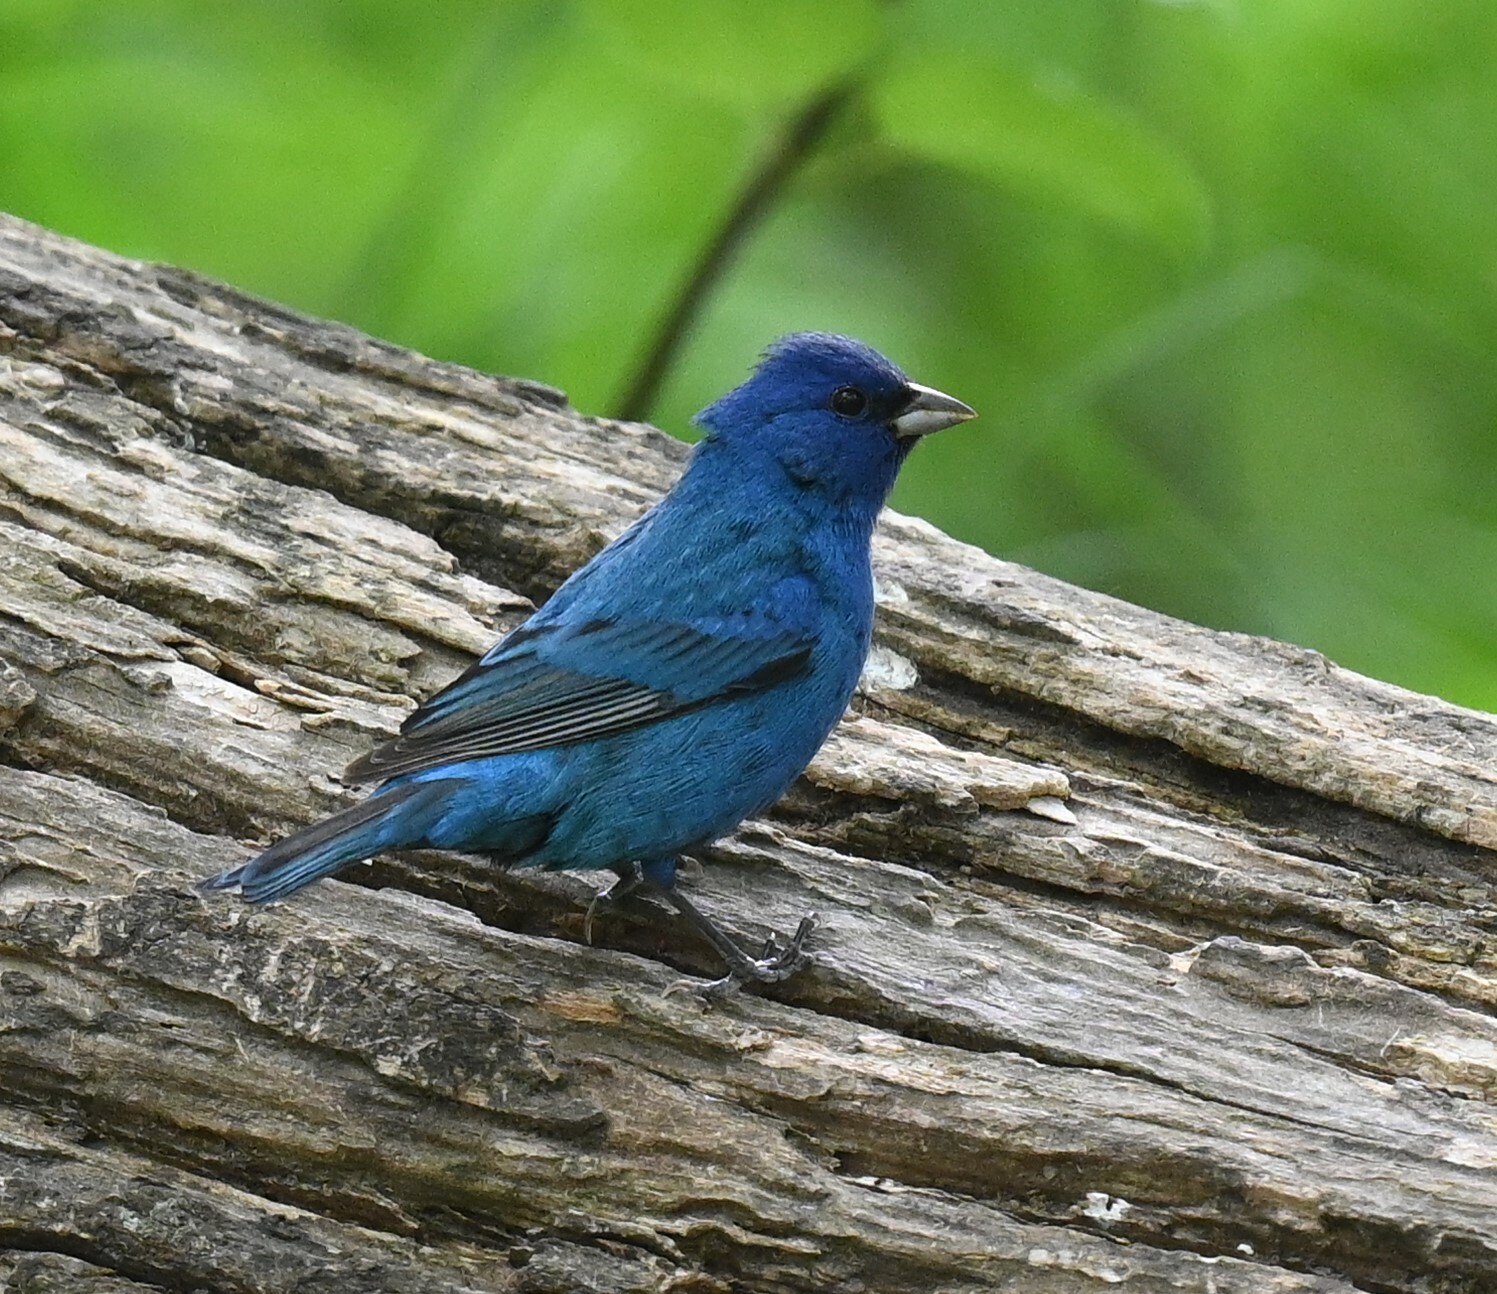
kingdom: Animalia
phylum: Chordata
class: Aves
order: Passeriformes
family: Cardinalidae
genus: Passerina
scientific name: Passerina cyanea
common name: Indigo bunting
